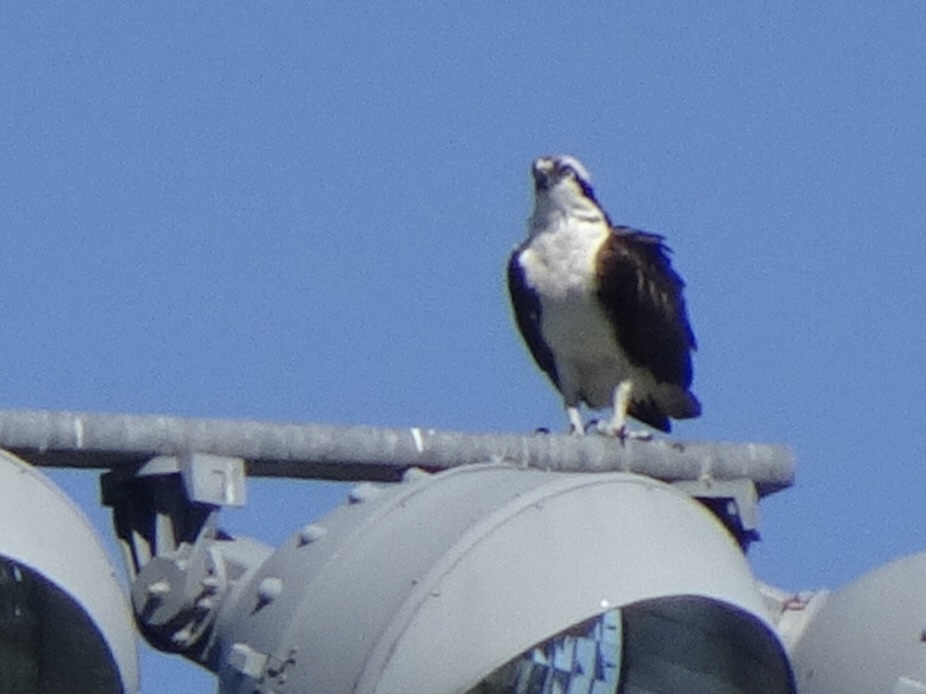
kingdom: Animalia
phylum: Chordata
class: Aves
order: Accipitriformes
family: Pandionidae
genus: Pandion
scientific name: Pandion haliaetus
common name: Osprey
